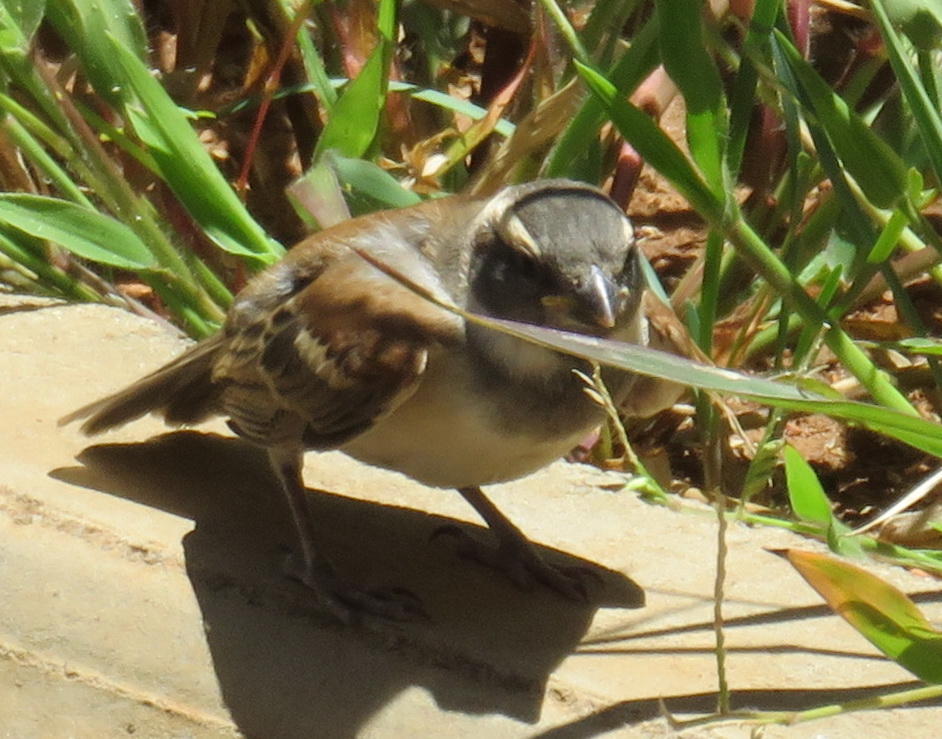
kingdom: Animalia
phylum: Chordata
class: Aves
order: Passeriformes
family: Passeridae
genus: Passer
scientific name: Passer melanurus
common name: Cape sparrow
